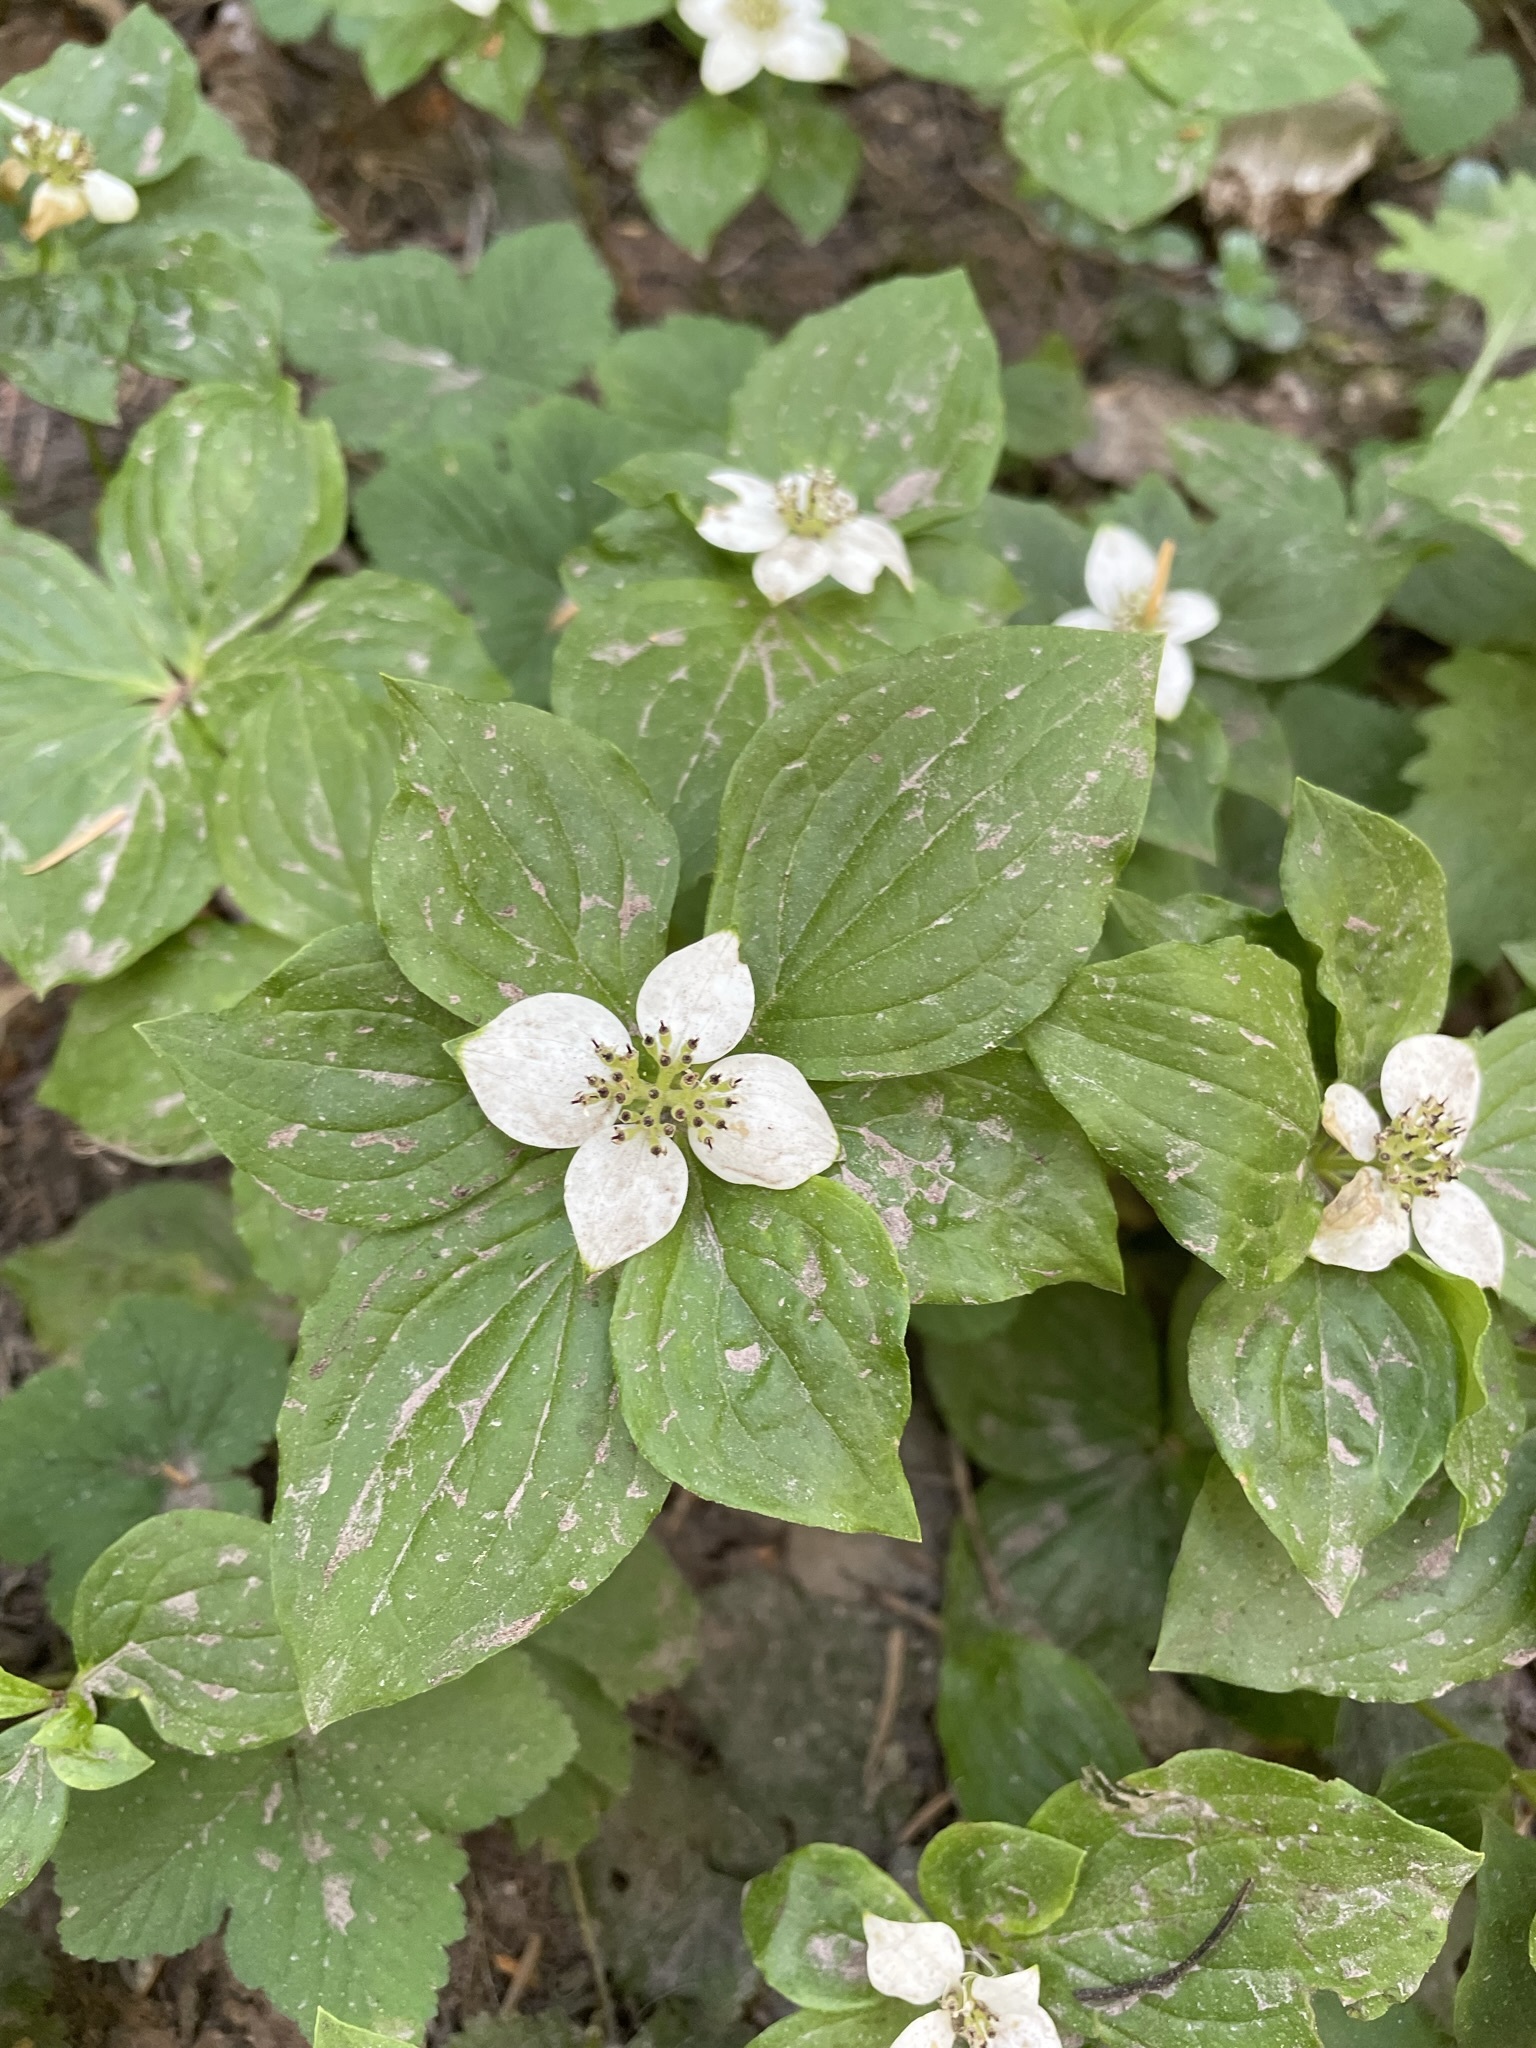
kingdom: Plantae
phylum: Tracheophyta
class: Magnoliopsida
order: Cornales
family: Cornaceae
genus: Cornus
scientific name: Cornus unalaschkensis
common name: Alaska bunchberry
